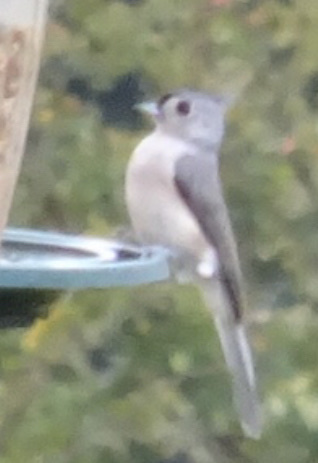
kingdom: Animalia
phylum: Chordata
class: Aves
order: Passeriformes
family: Paridae
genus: Baeolophus
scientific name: Baeolophus bicolor
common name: Tufted titmouse
